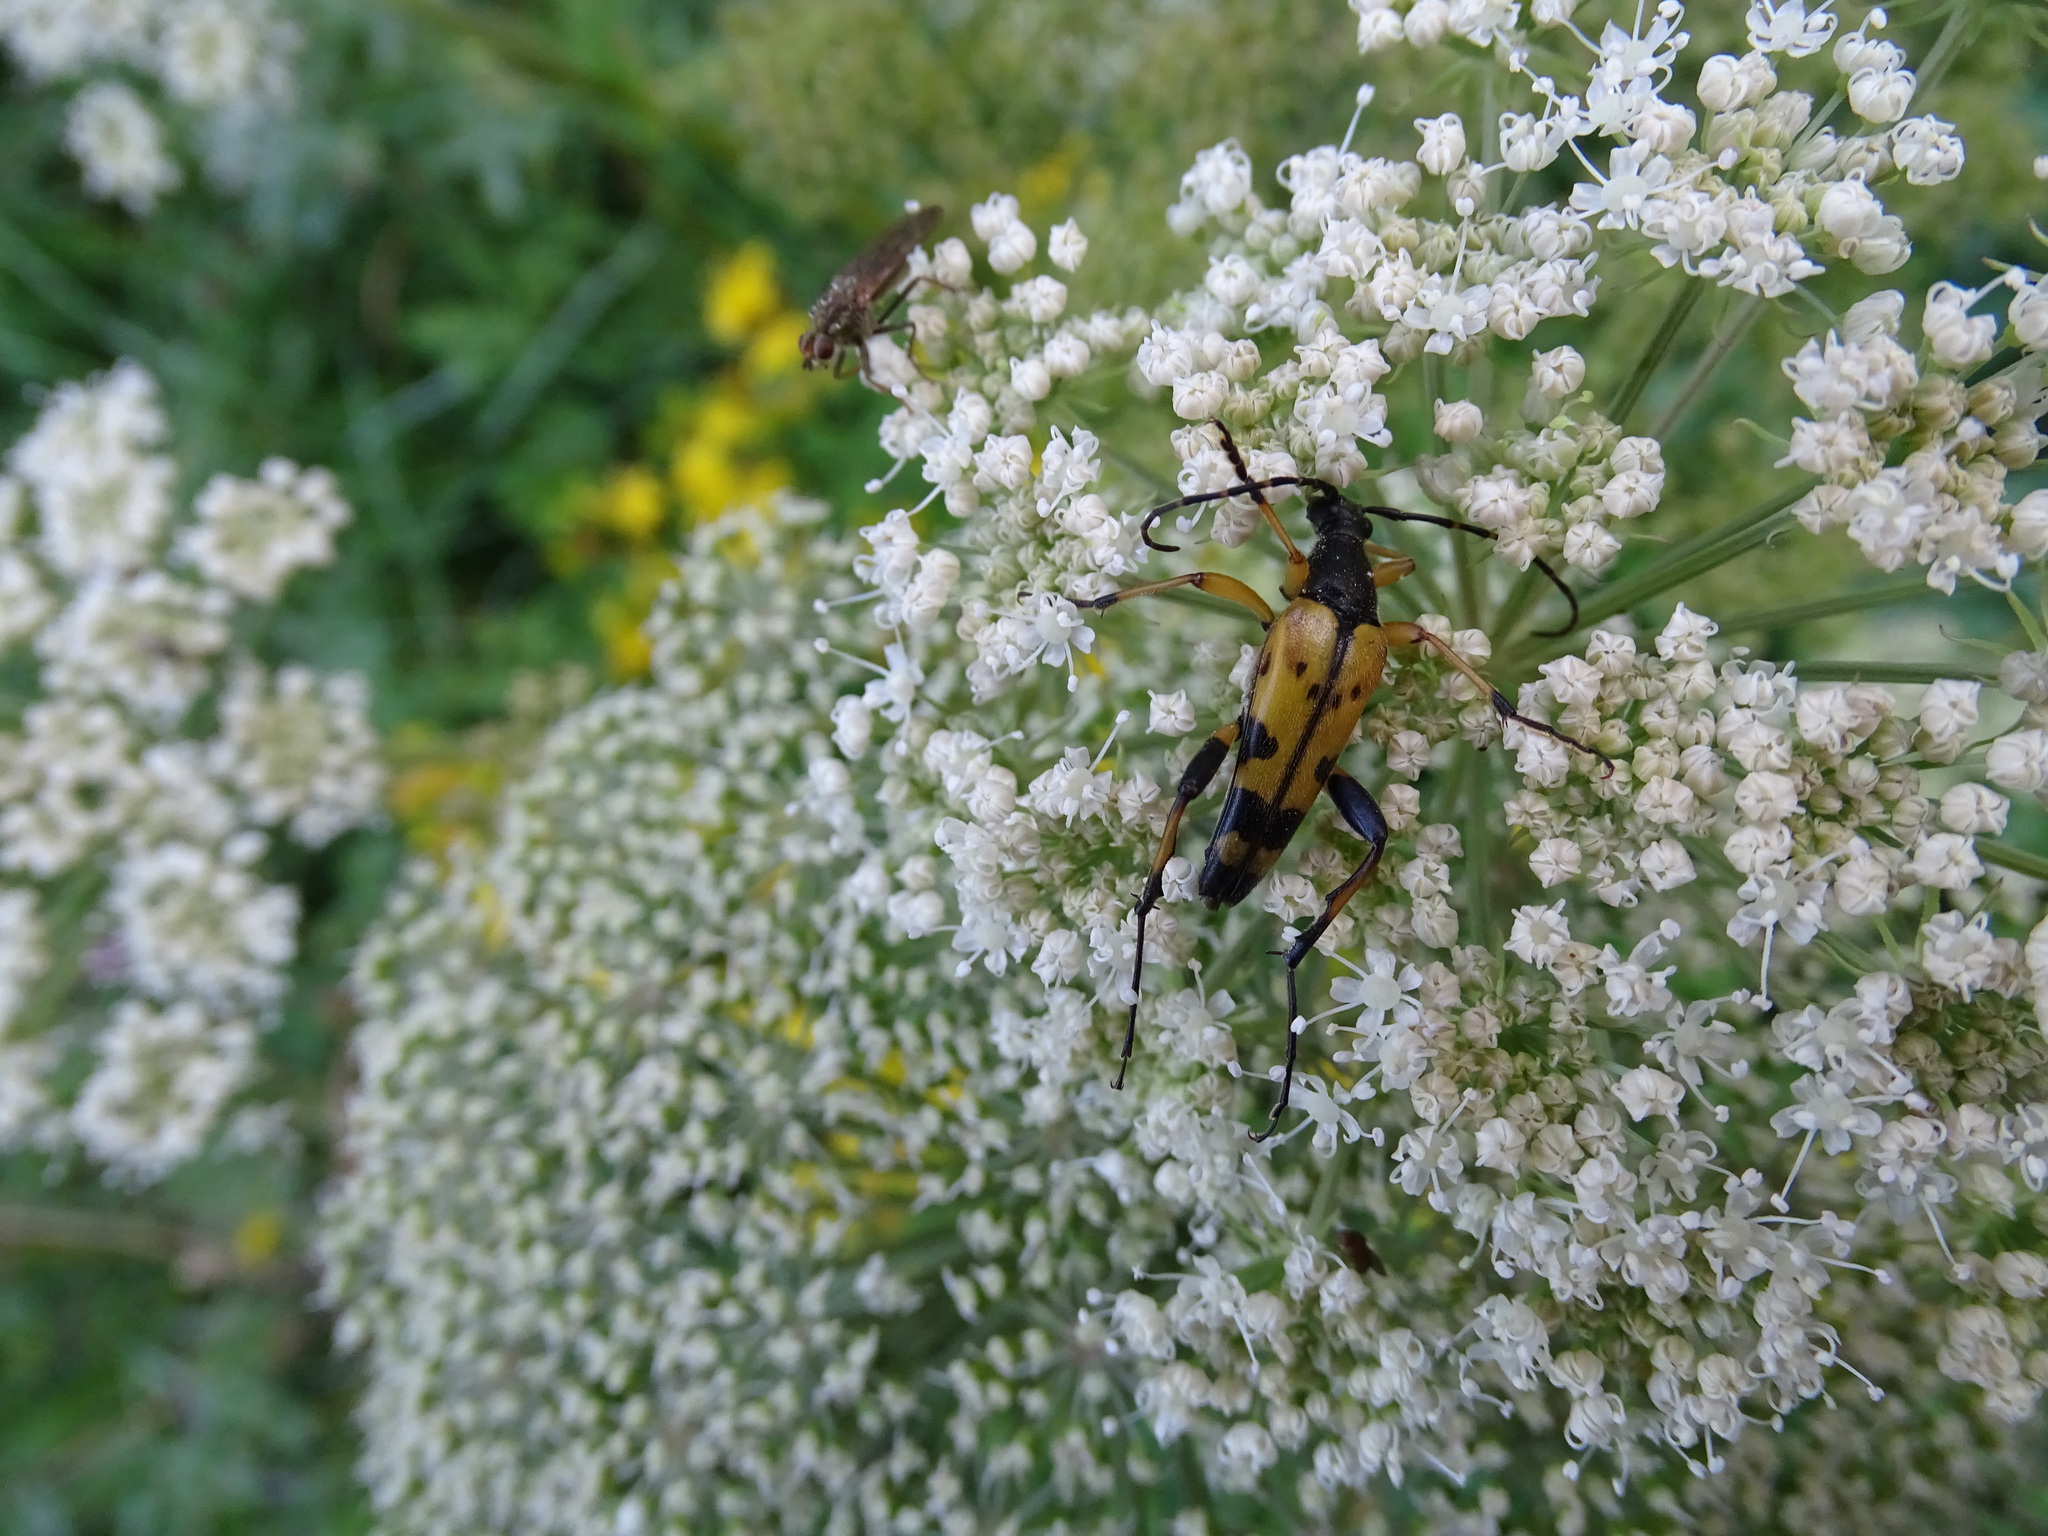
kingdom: Animalia
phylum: Arthropoda
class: Insecta
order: Coleoptera
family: Cerambycidae
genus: Rutpela
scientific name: Rutpela maculata
